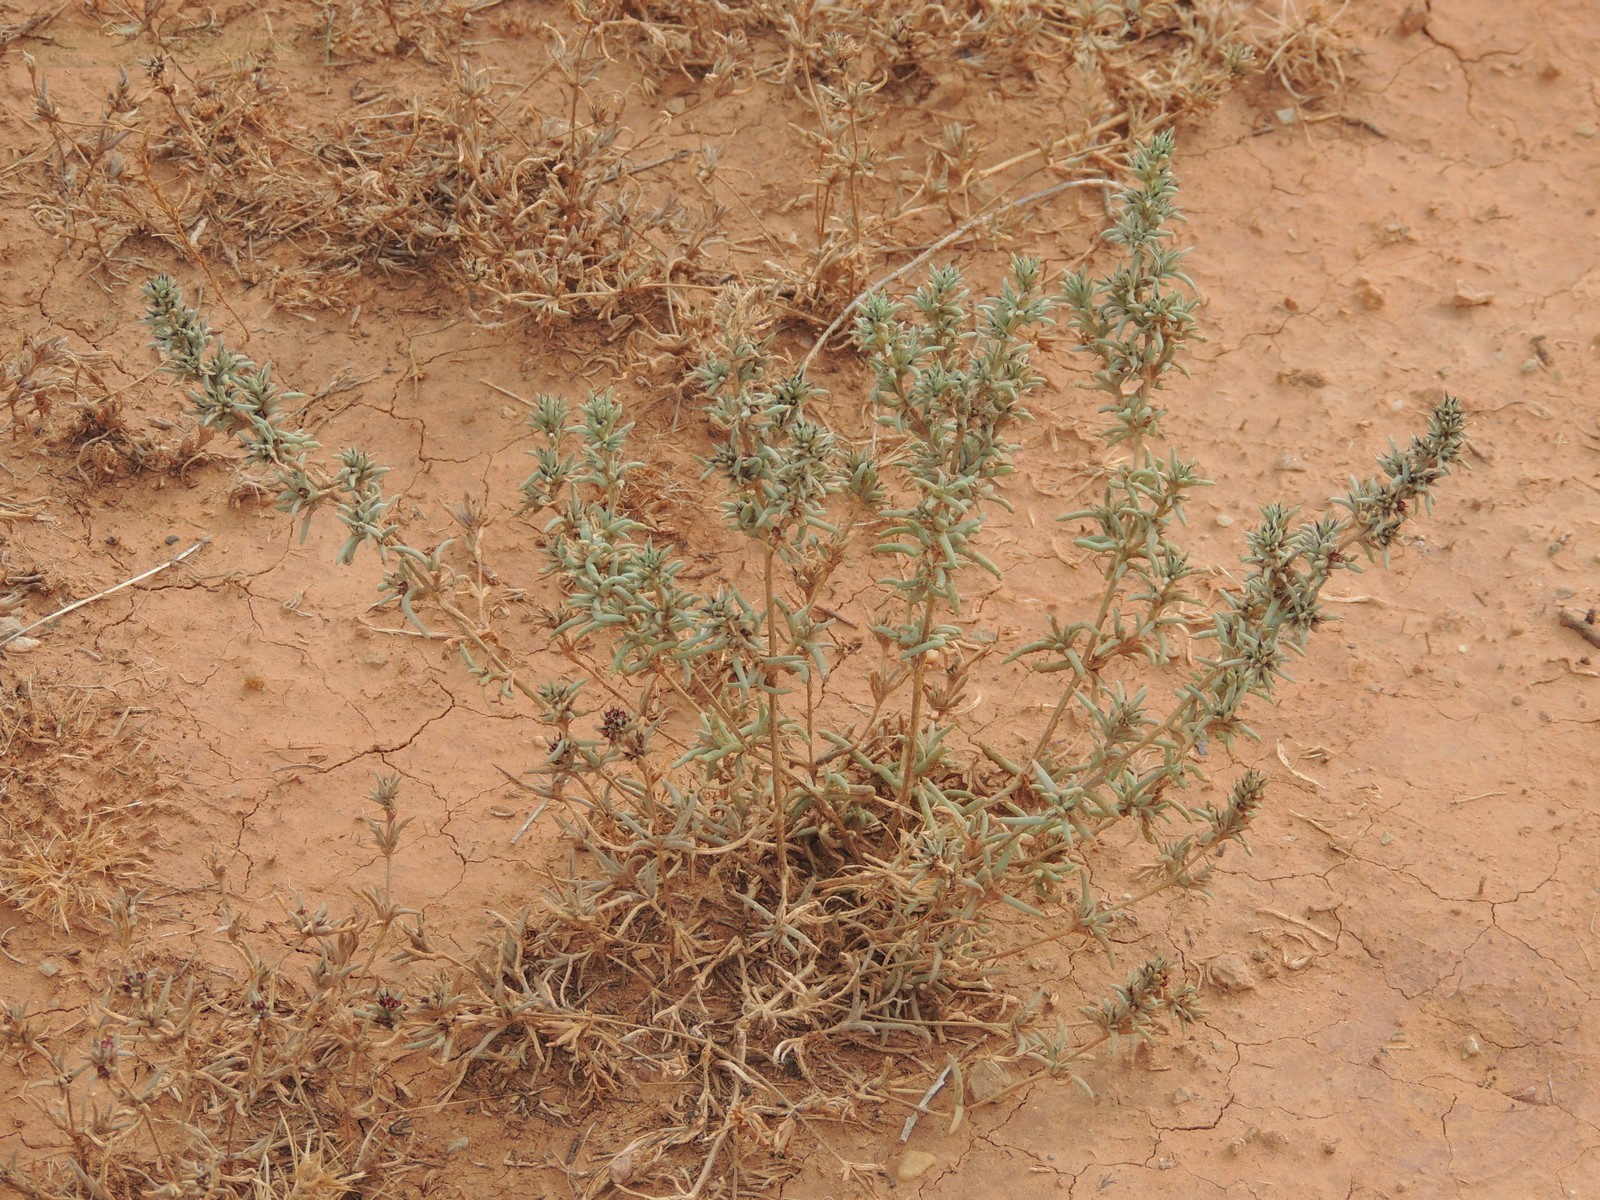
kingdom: Plantae
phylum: Tracheophyta
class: Magnoliopsida
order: Caryophyllales
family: Amaranthaceae
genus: Pyankovia
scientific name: Pyankovia brachiata
